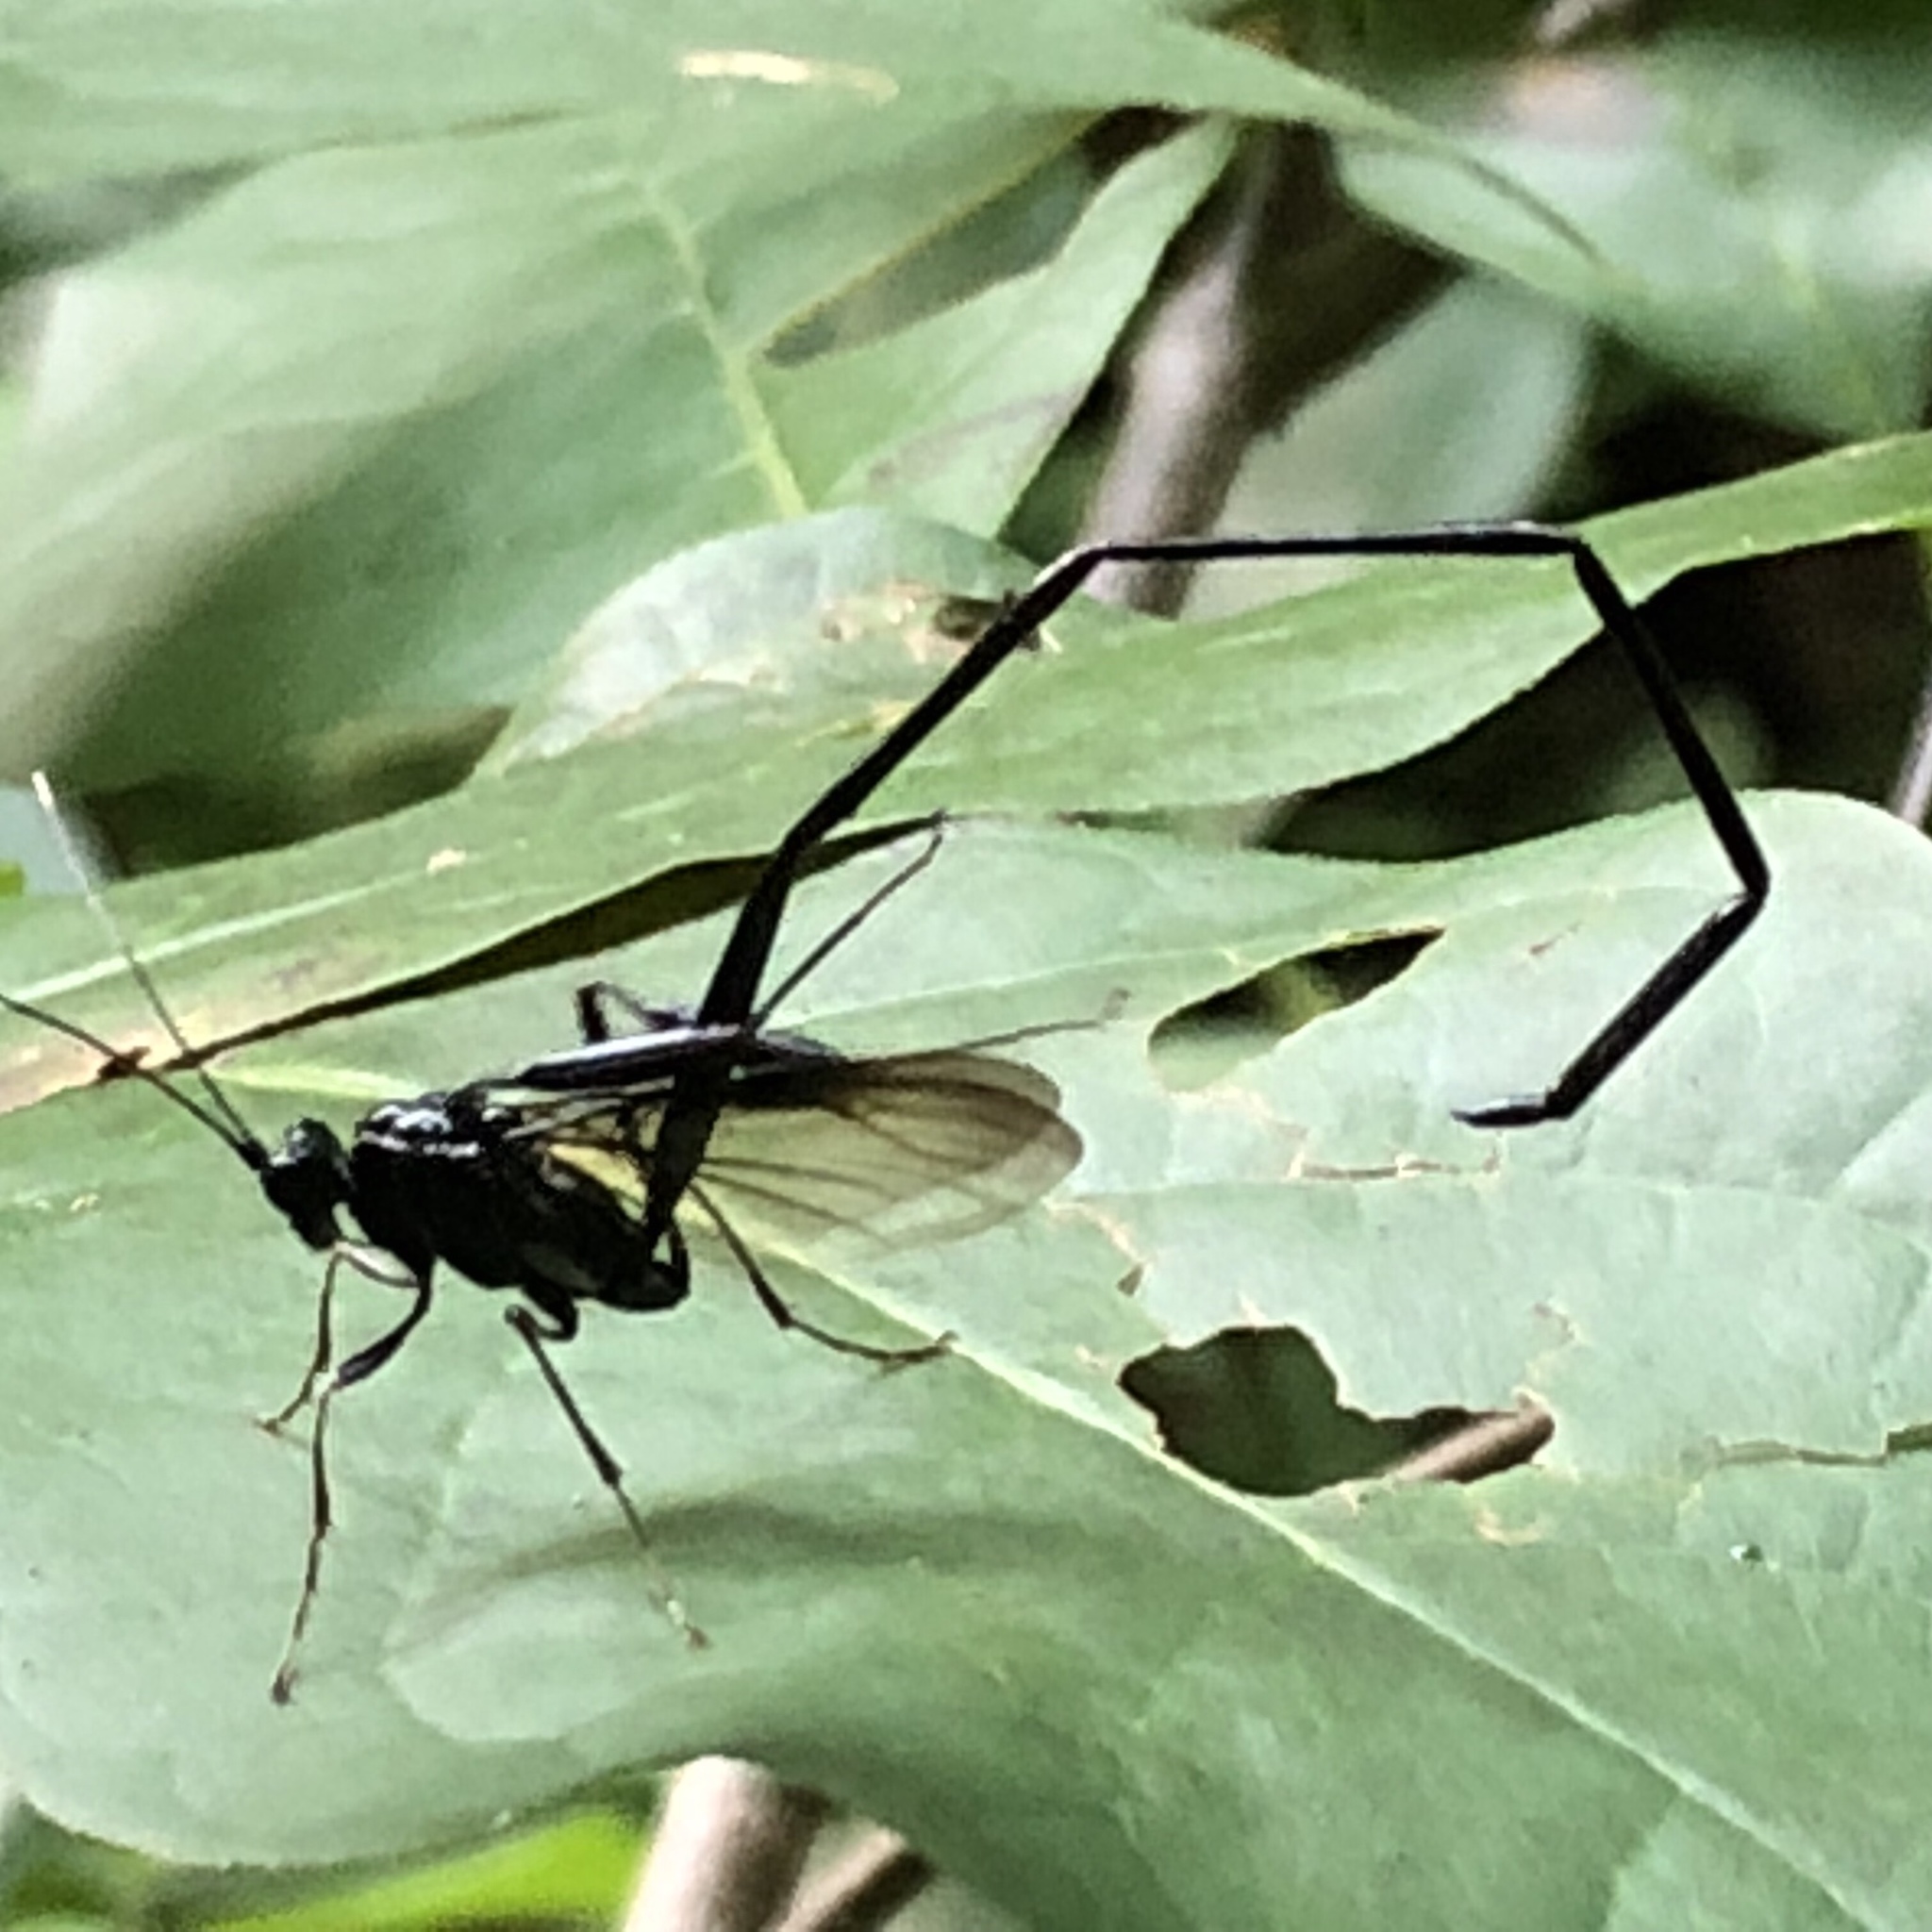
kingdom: Animalia
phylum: Arthropoda
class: Insecta
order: Hymenoptera
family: Pelecinidae
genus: Pelecinus
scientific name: Pelecinus polyturator
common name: American pelecinid wasp
